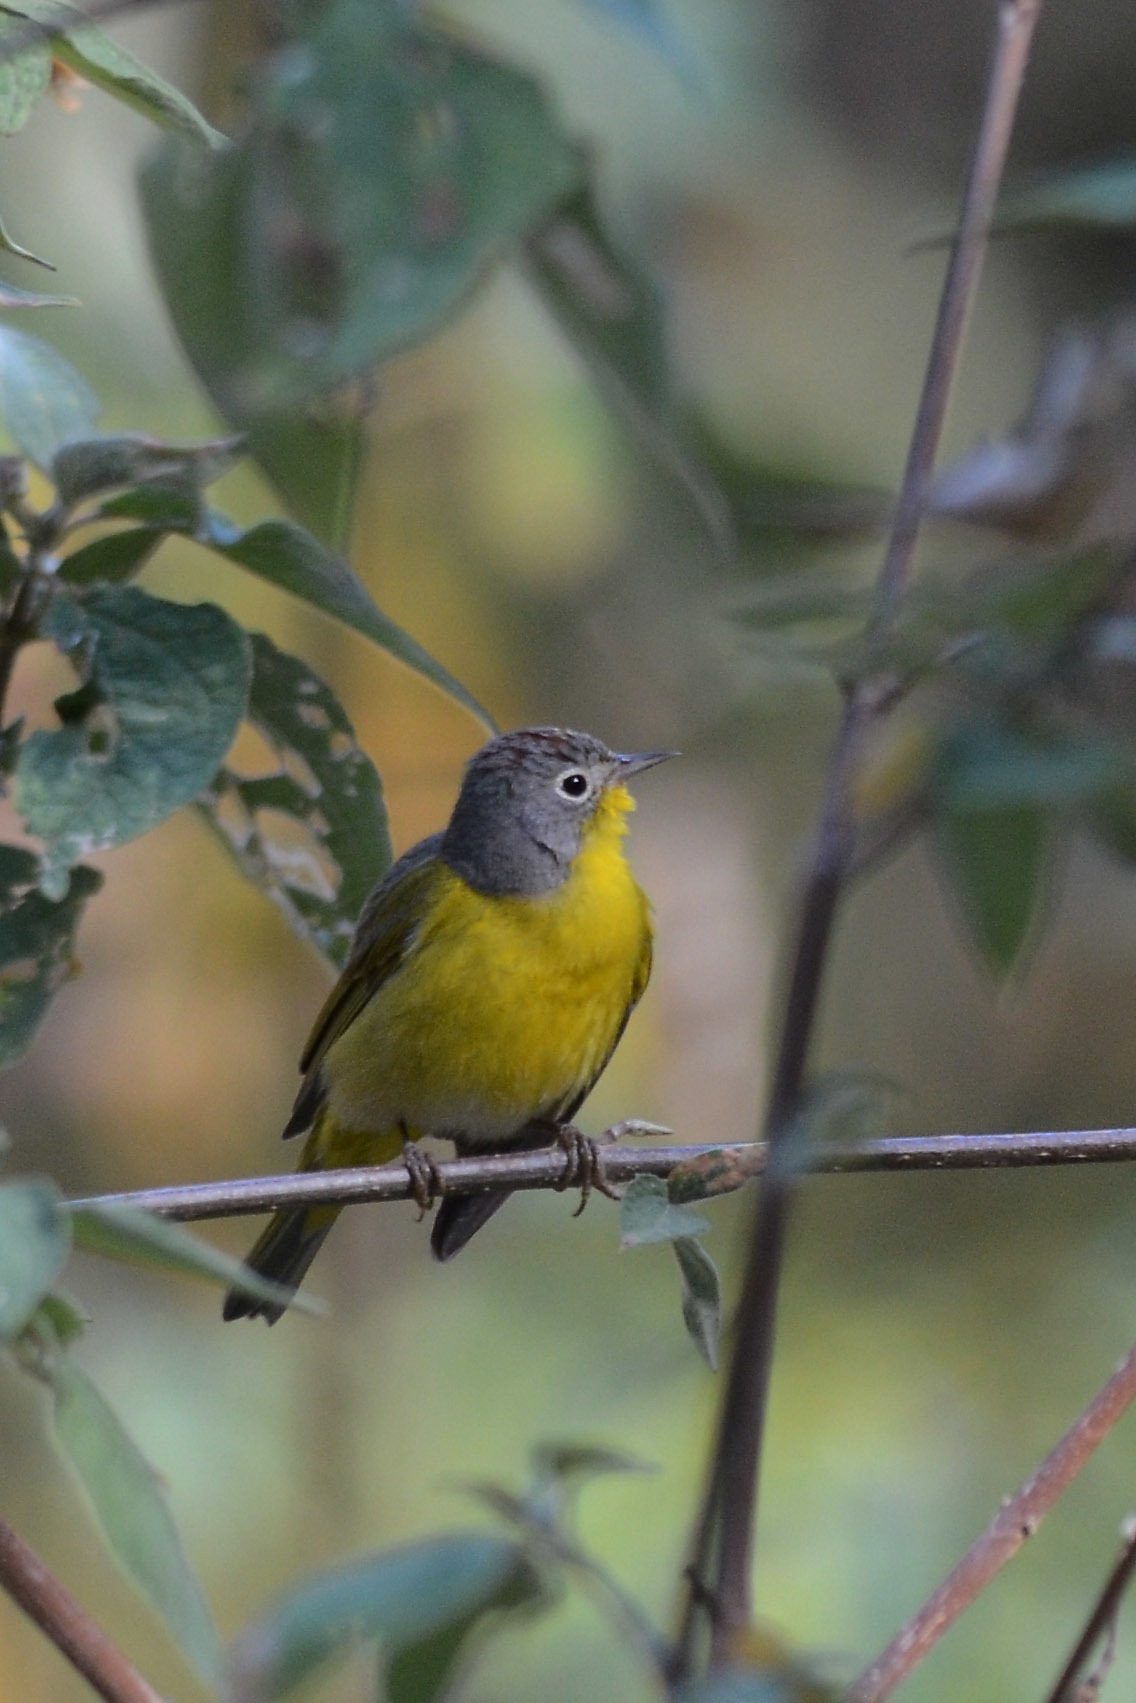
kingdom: Animalia
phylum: Chordata
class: Aves
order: Passeriformes
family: Parulidae
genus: Leiothlypis
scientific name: Leiothlypis ruficapilla
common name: Nashville warbler
